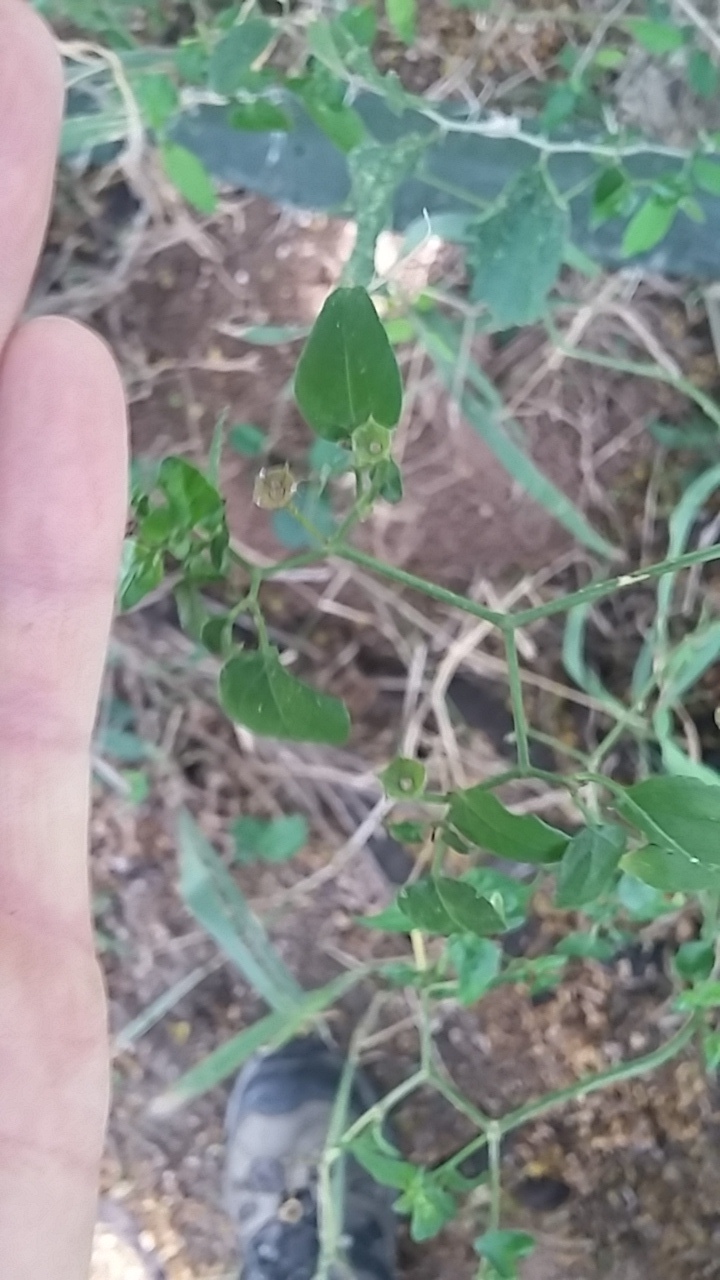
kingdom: Plantae
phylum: Tracheophyta
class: Magnoliopsida
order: Solanales
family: Solanaceae
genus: Capsicum
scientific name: Capsicum annuum
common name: Sweet pepper
